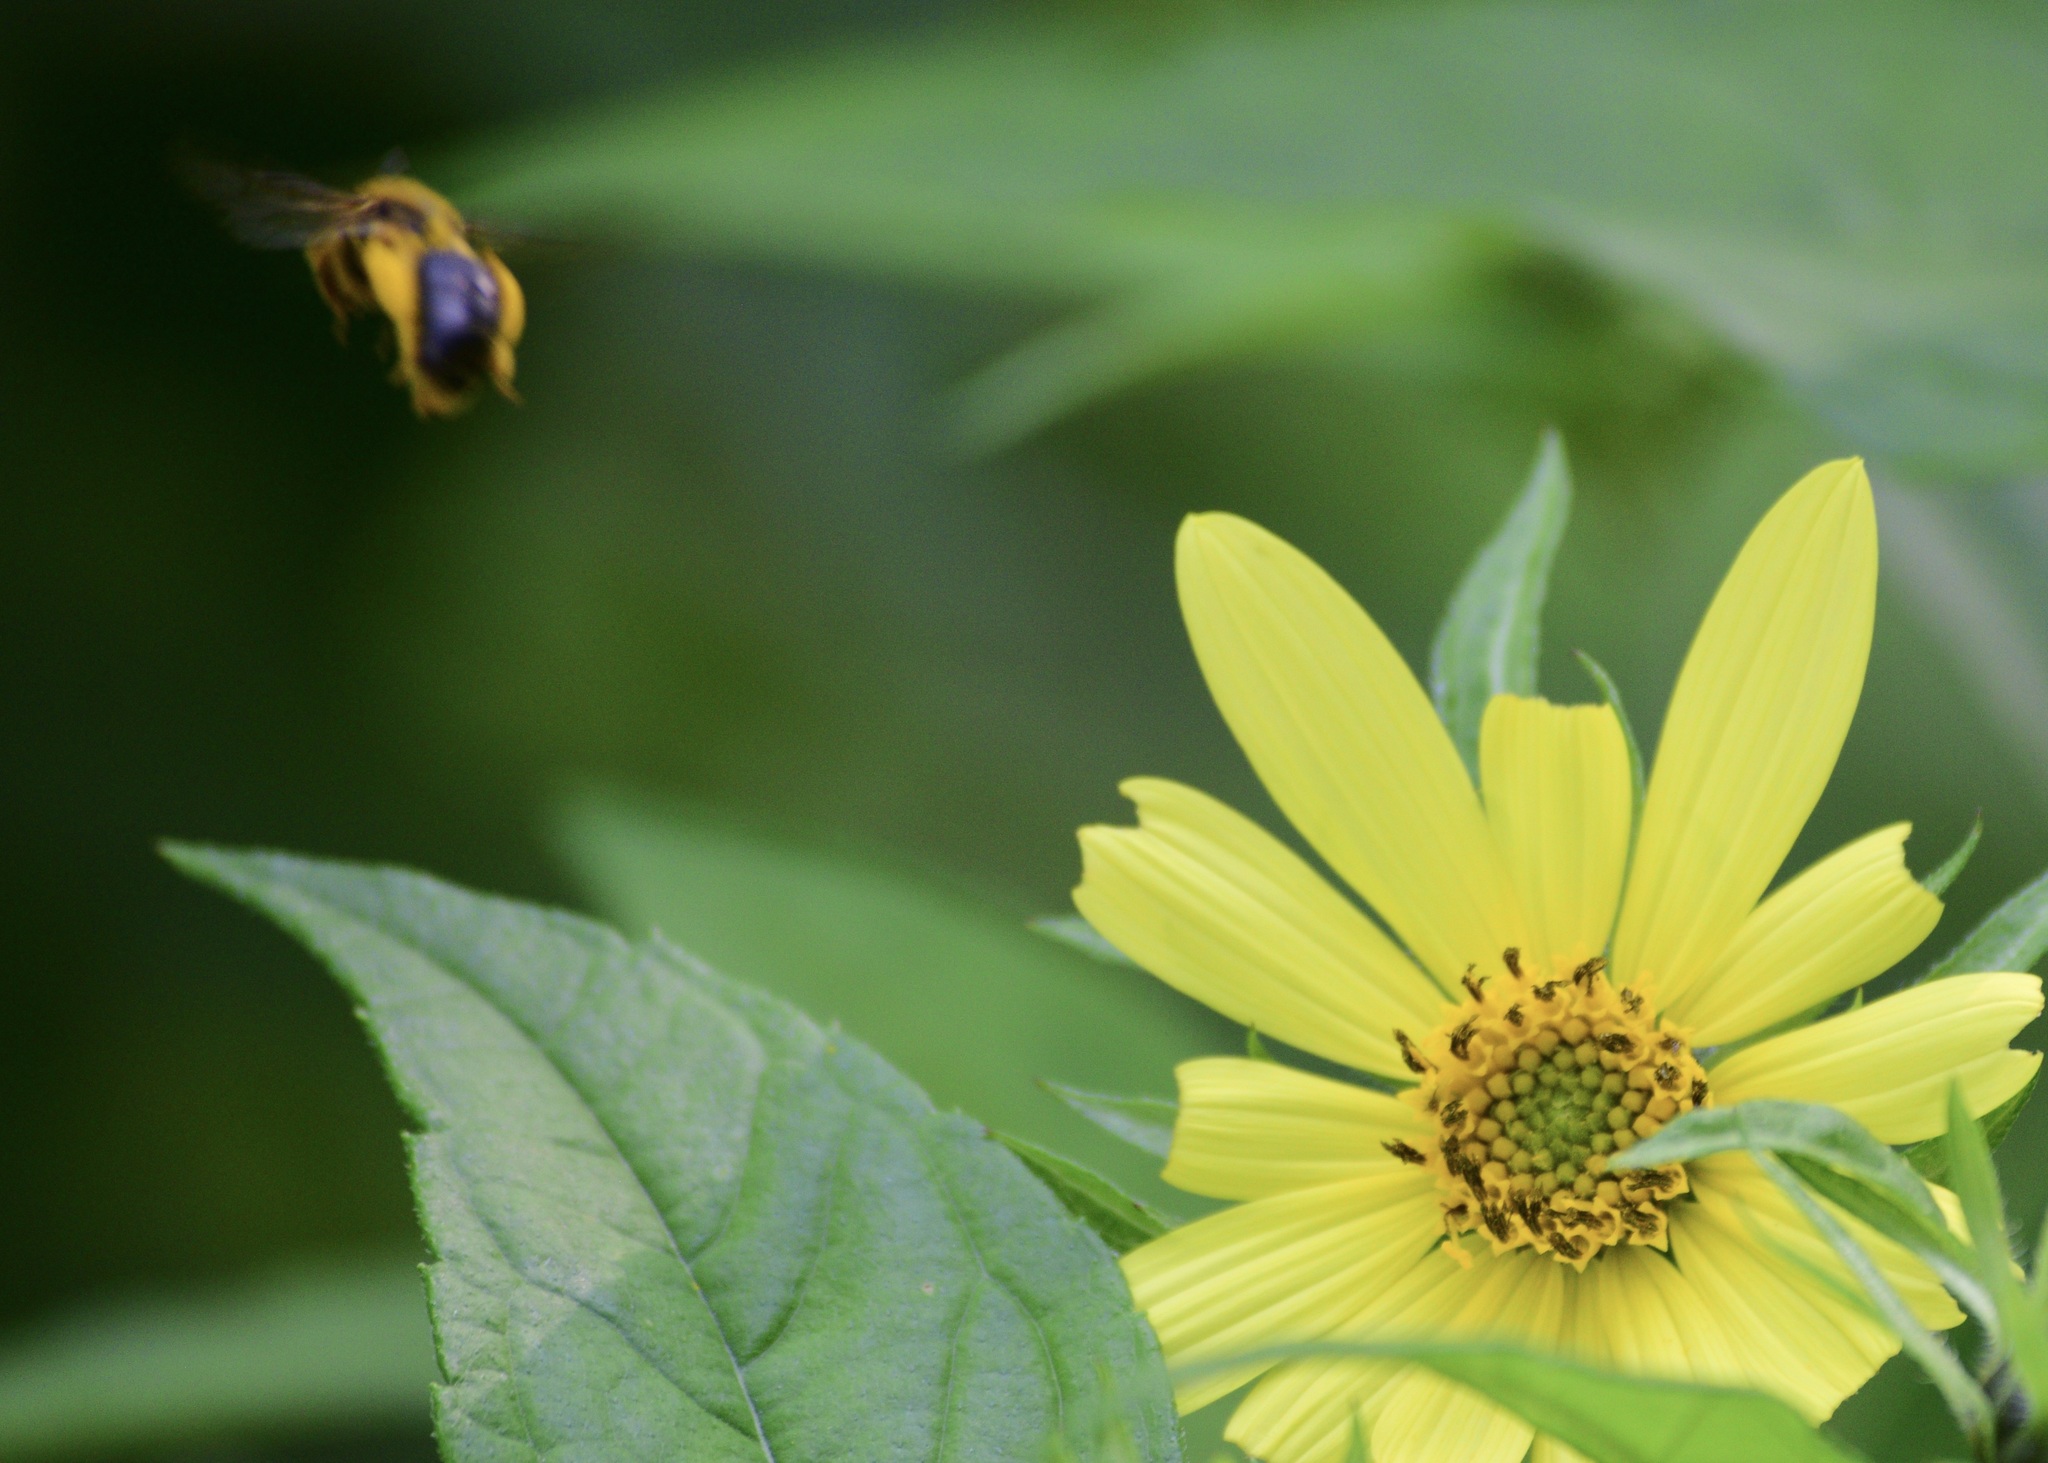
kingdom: Animalia
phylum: Arthropoda
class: Insecta
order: Hymenoptera
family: Andrenidae
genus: Andrena
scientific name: Andrena helianthi
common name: Sunflower mining bee
